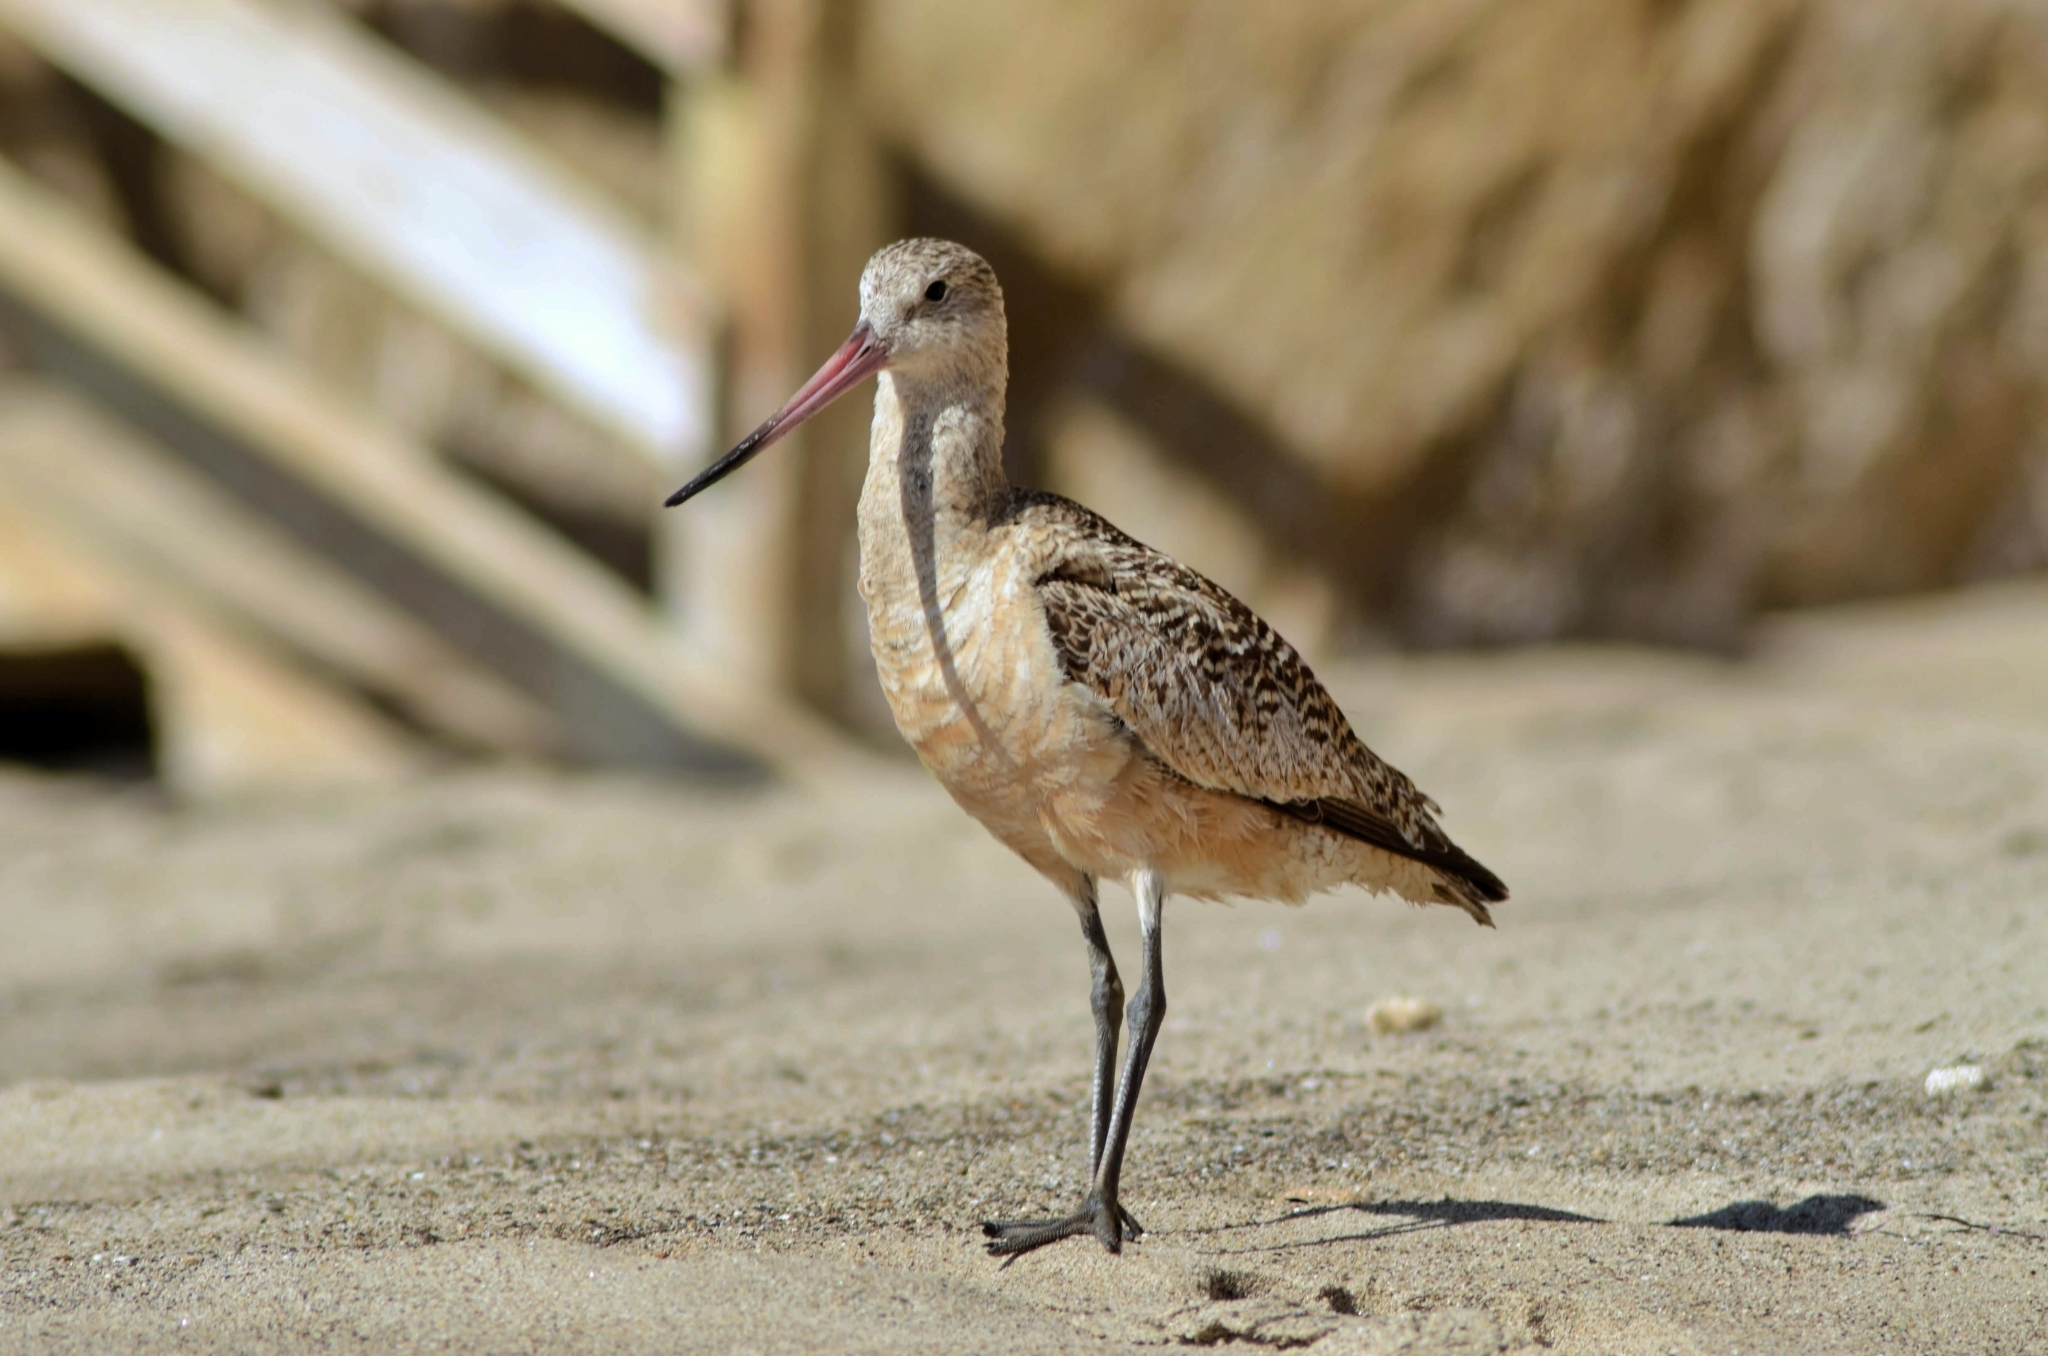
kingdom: Animalia
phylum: Chordata
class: Aves
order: Charadriiformes
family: Scolopacidae
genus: Limosa
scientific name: Limosa fedoa
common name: Marbled godwit
